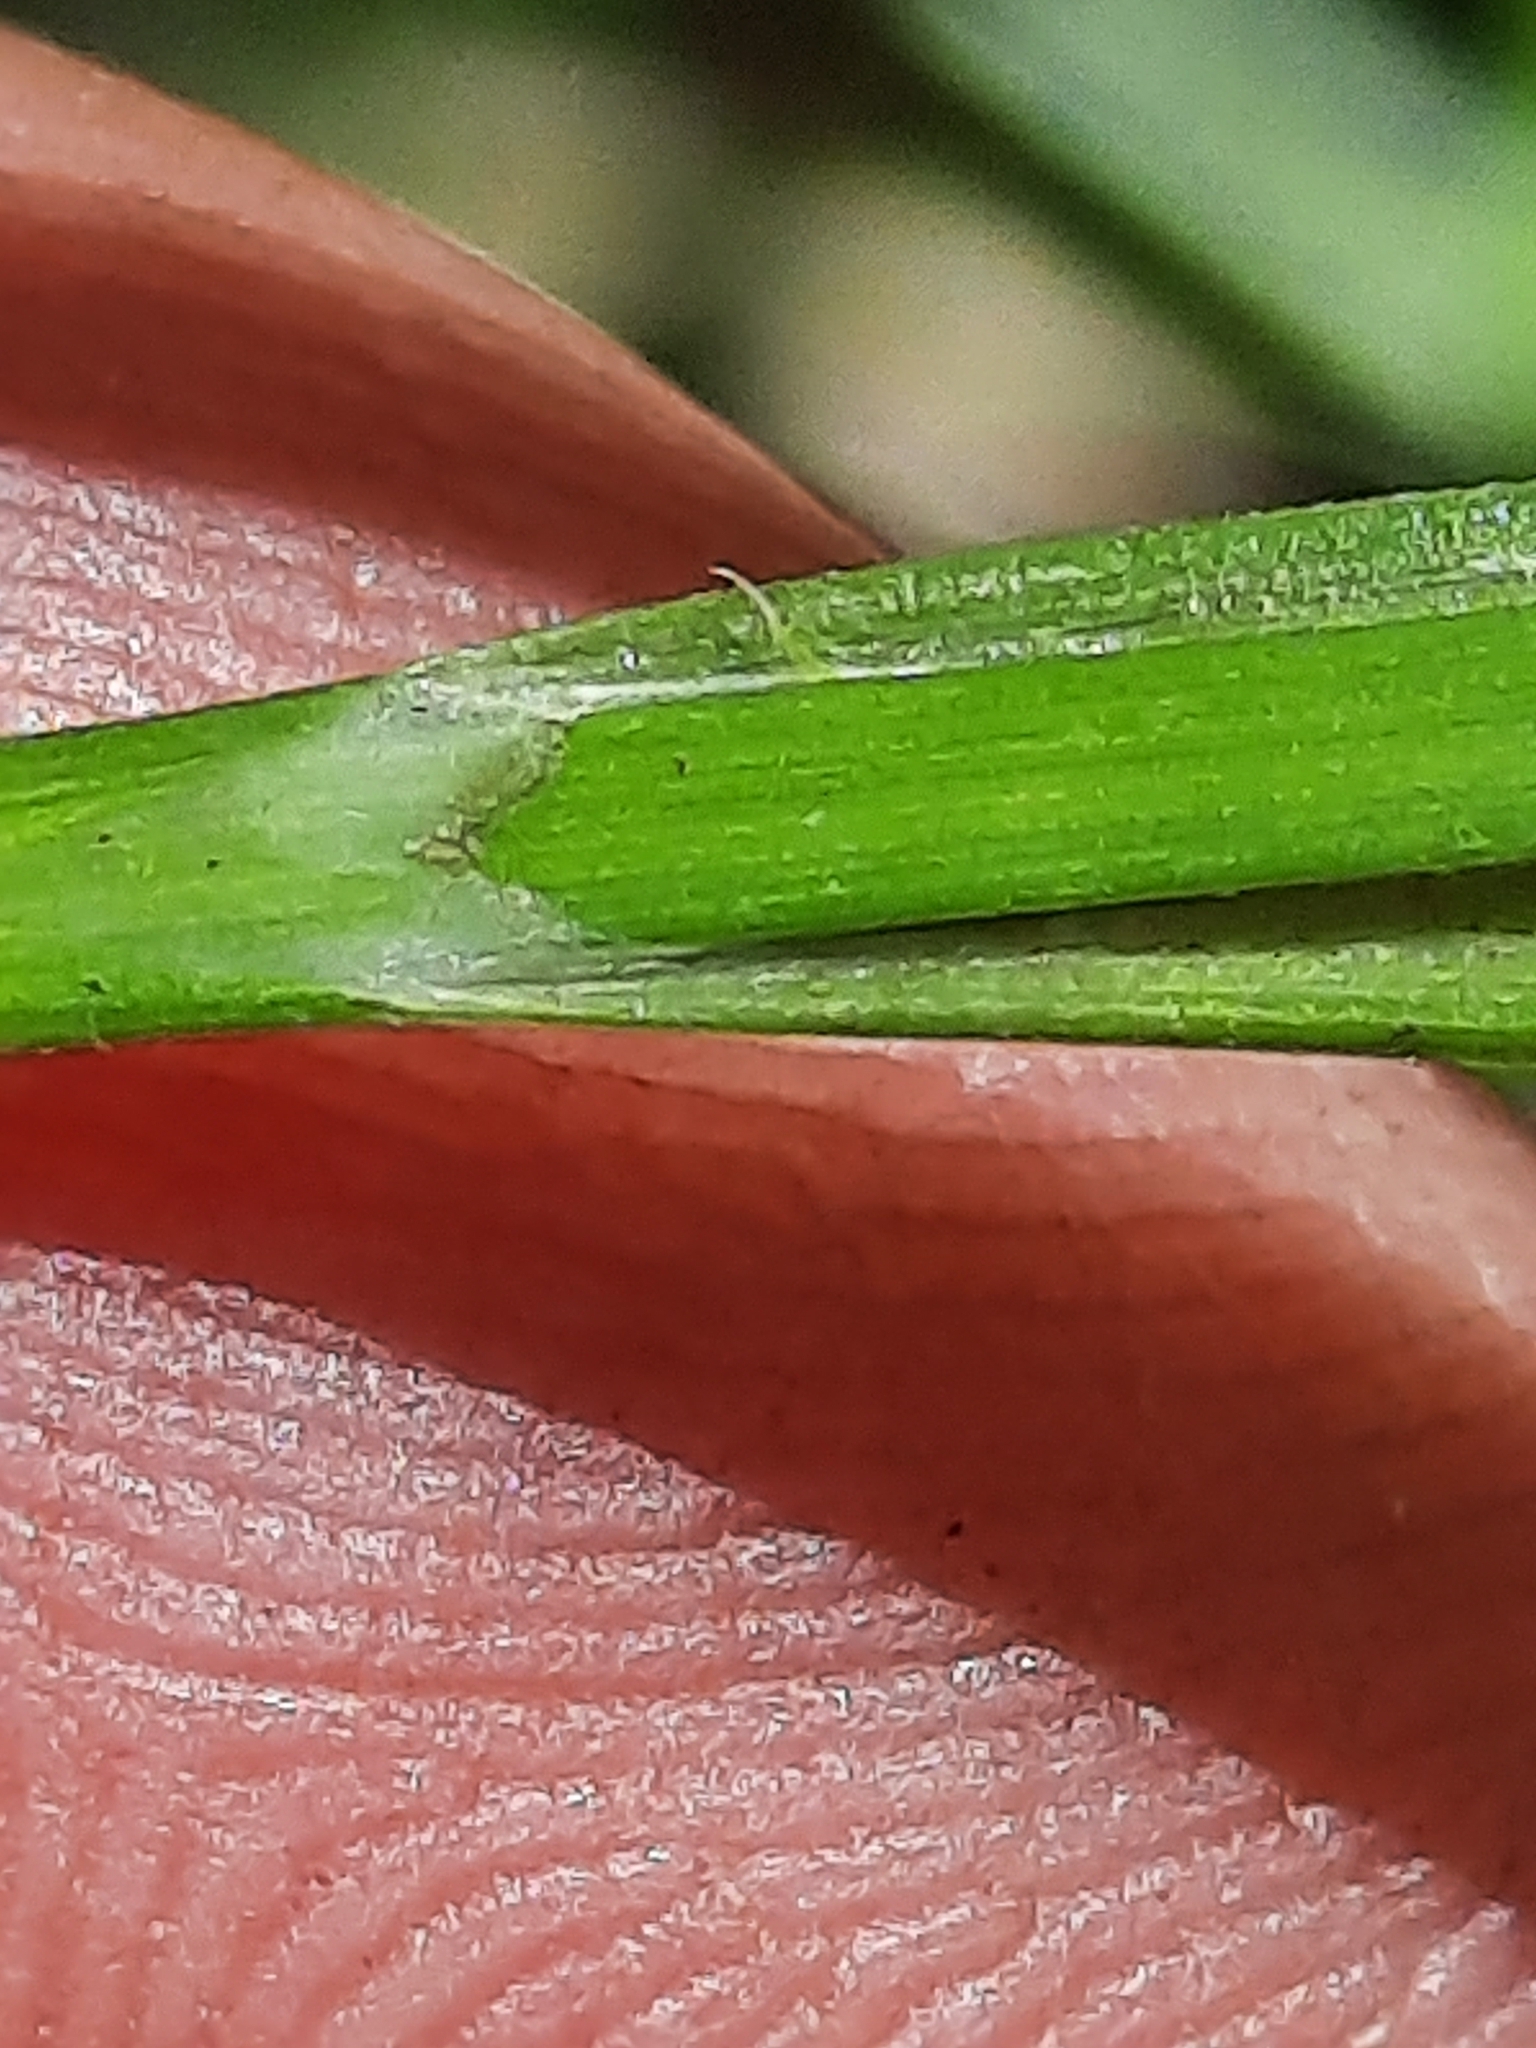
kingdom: Plantae
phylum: Tracheophyta
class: Liliopsida
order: Poales
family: Cyperaceae
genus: Carex
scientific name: Carex lurida
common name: Sallow sedge
